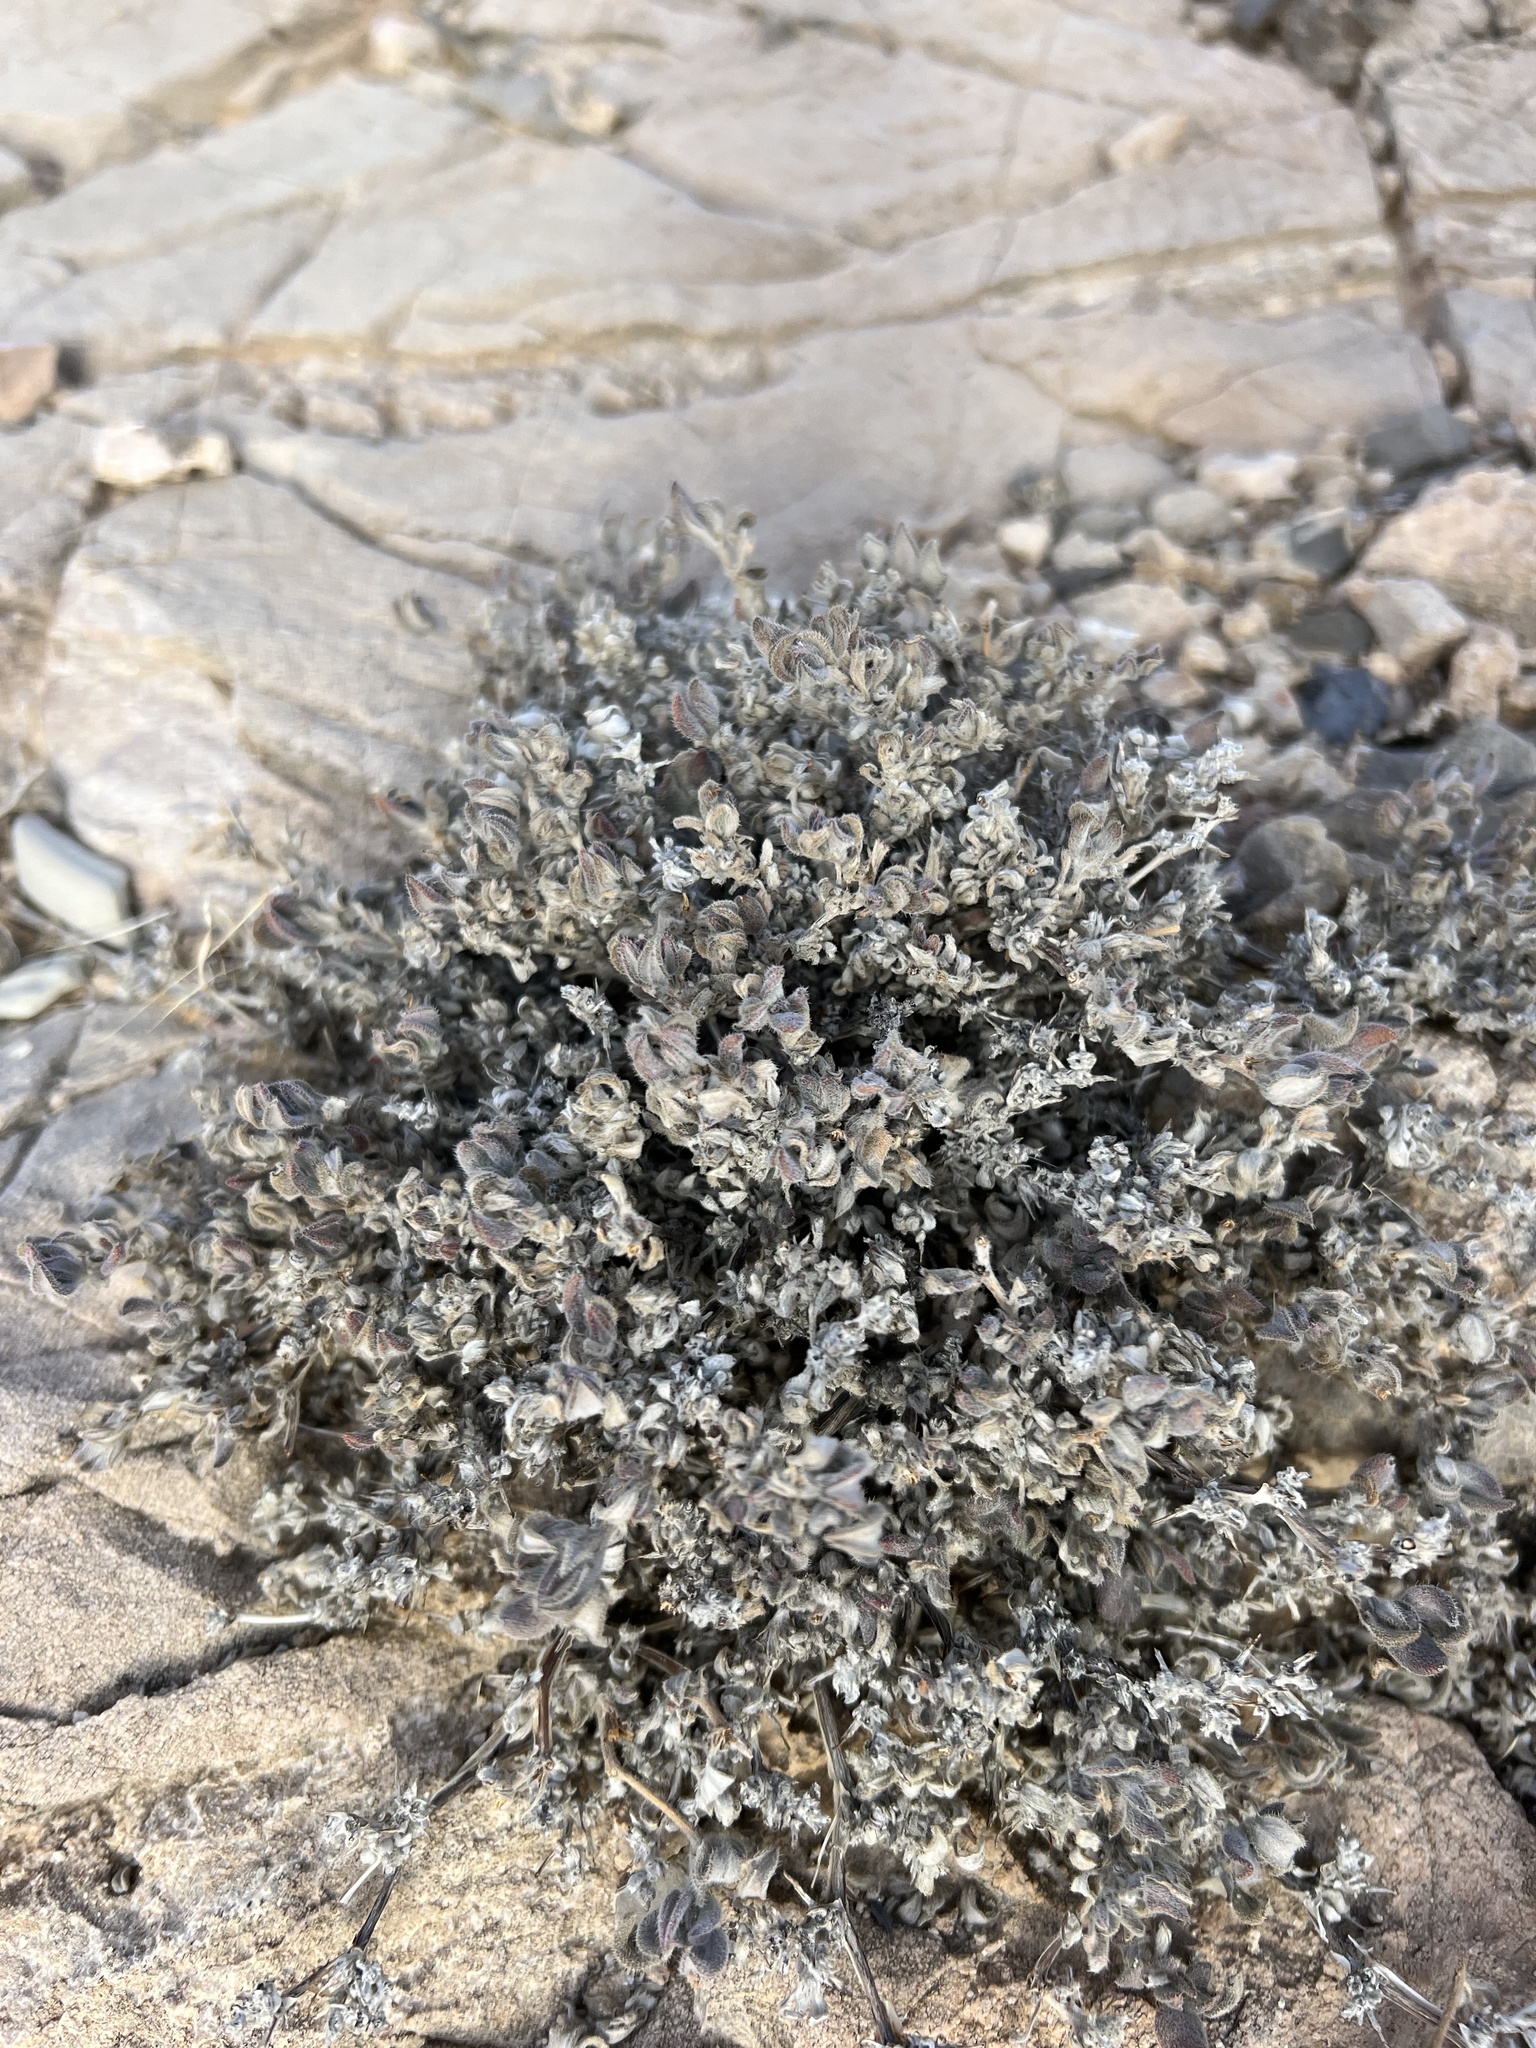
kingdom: Plantae
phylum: Tracheophyta
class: Magnoliopsida
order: Boraginales
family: Ehretiaceae
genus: Tiquilia
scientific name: Tiquilia canescens
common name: Hairy tiquilia
